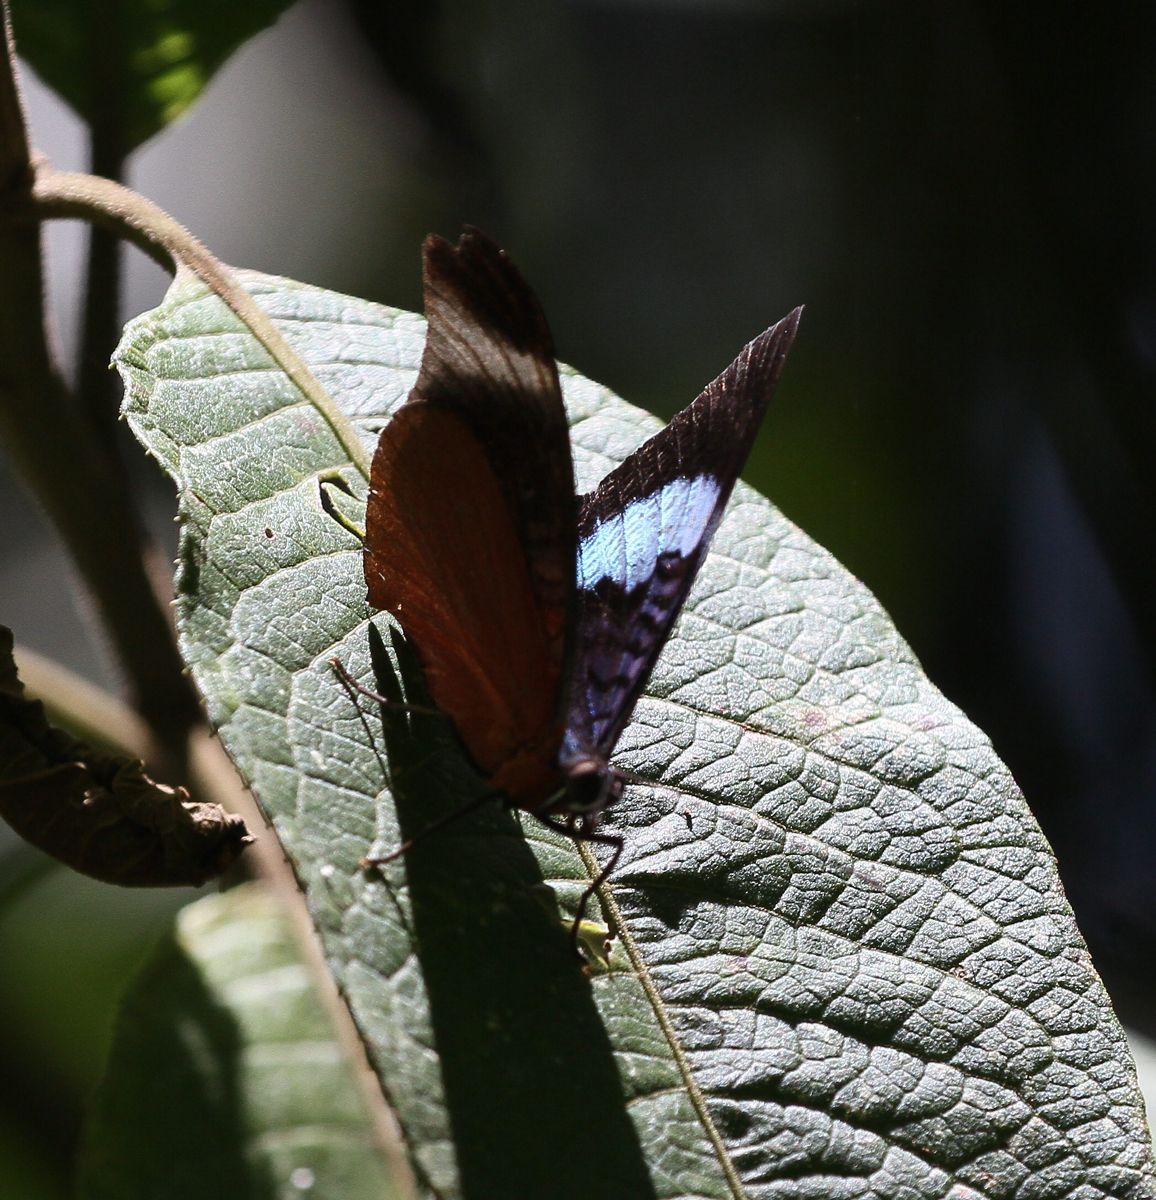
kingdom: Animalia
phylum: Arthropoda
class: Insecta
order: Lepidoptera
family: Nymphalidae
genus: Panacea
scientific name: Panacea prola
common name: Red flasher
